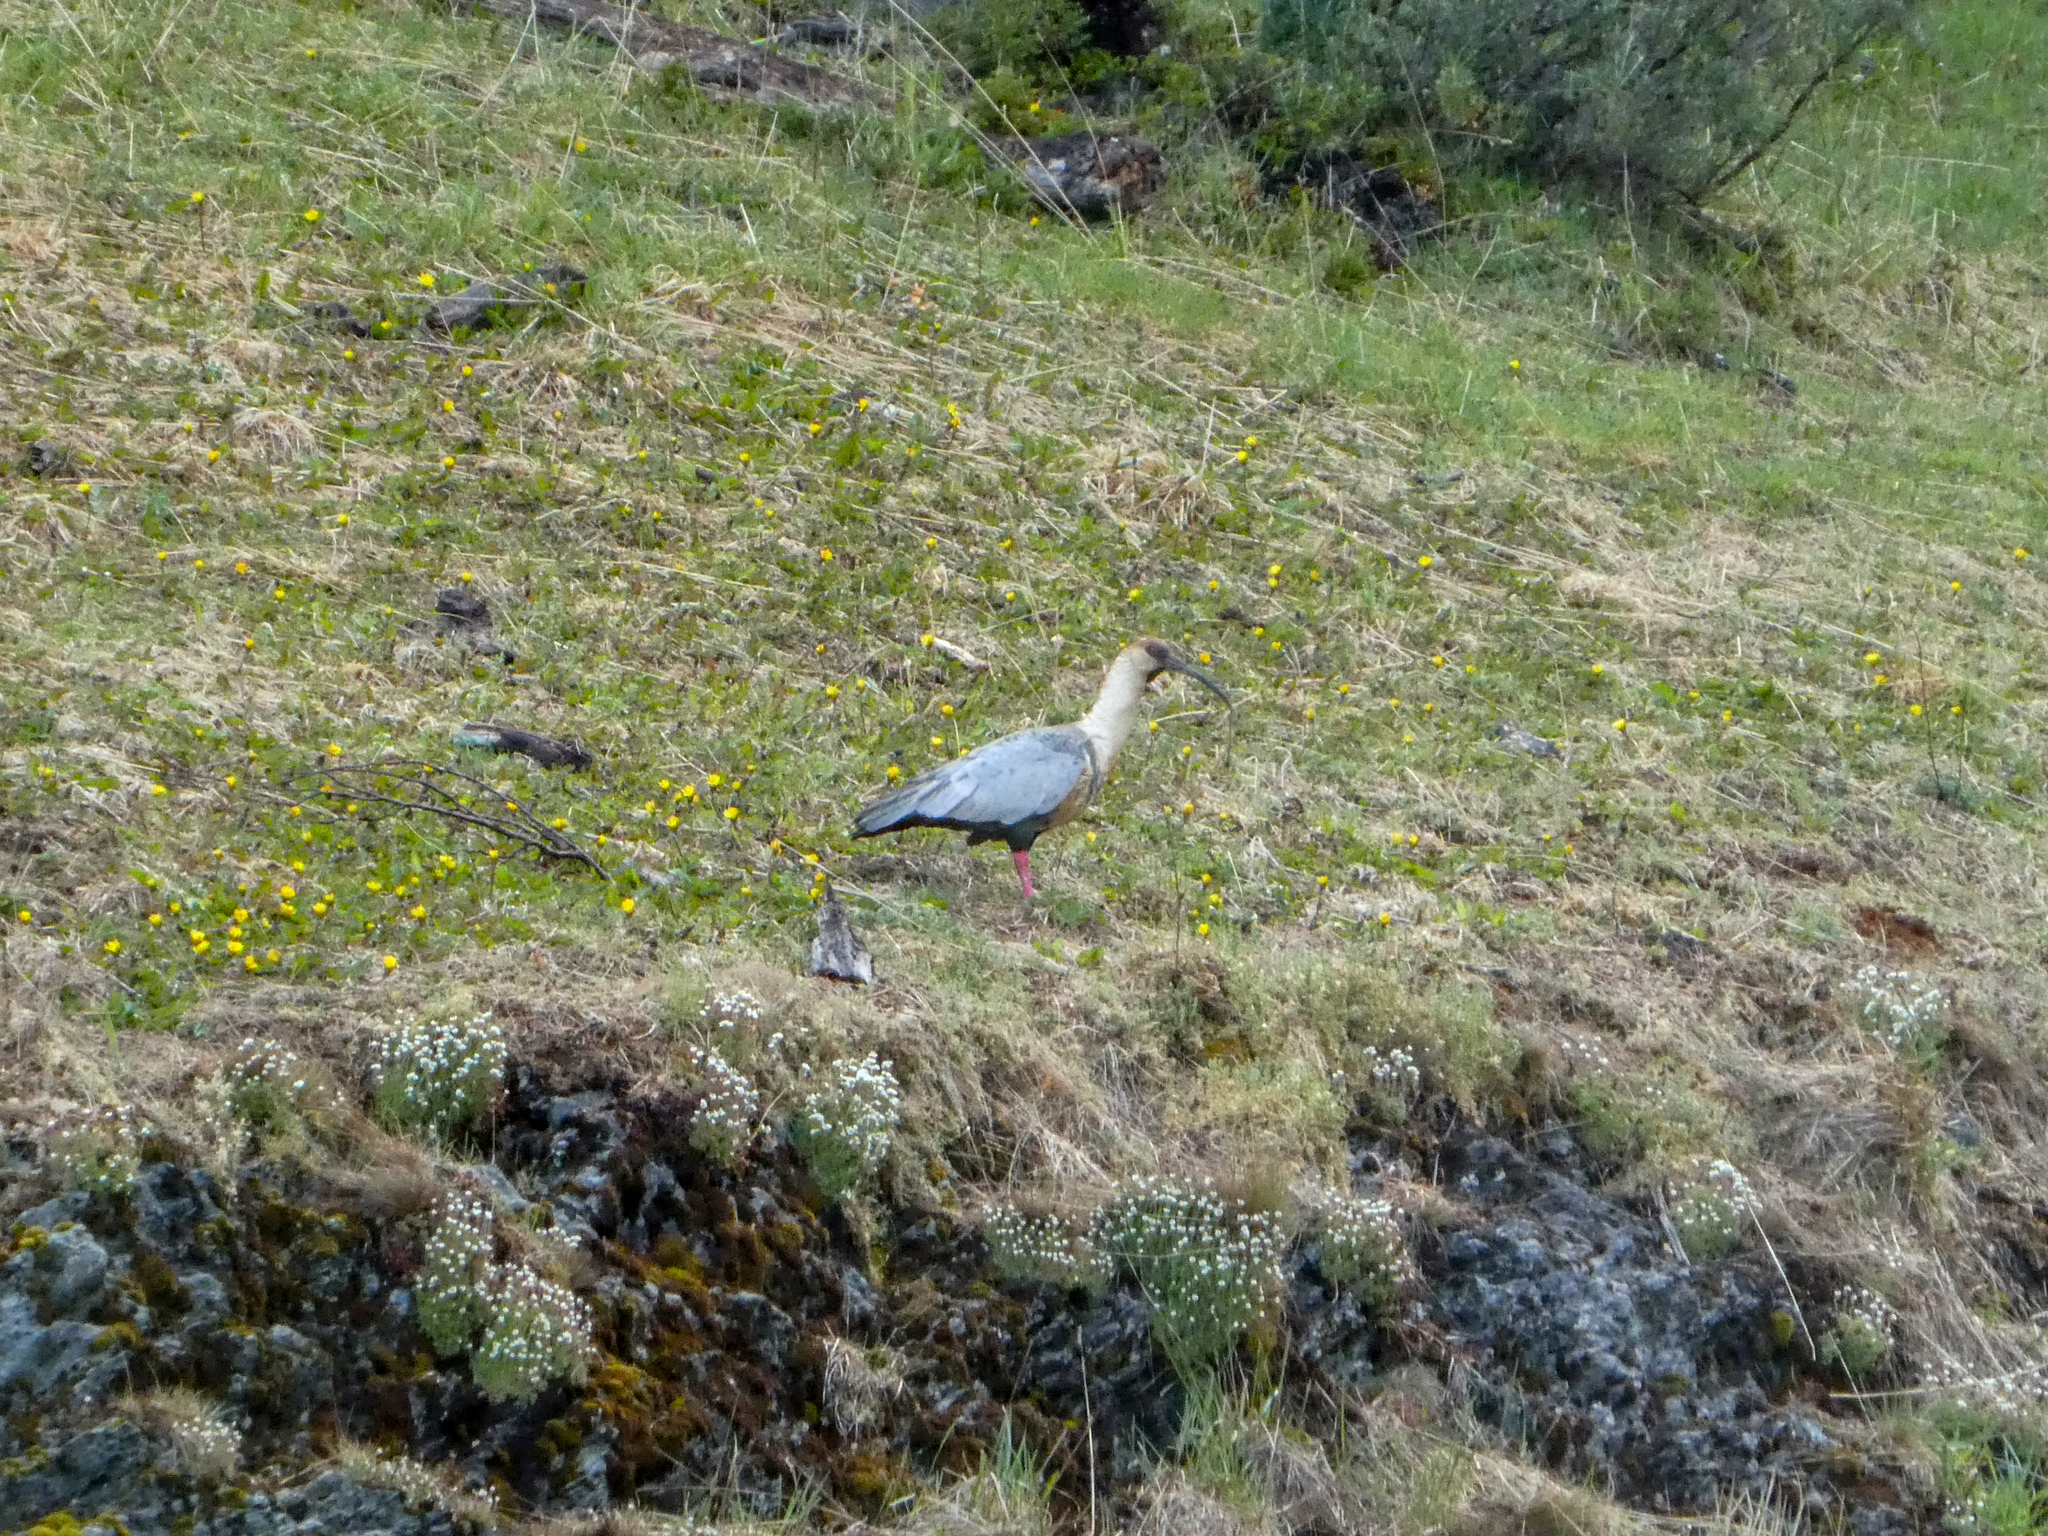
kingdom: Animalia
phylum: Chordata
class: Aves
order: Pelecaniformes
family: Threskiornithidae
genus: Theristicus
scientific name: Theristicus melanopis
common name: Black-faced ibis
